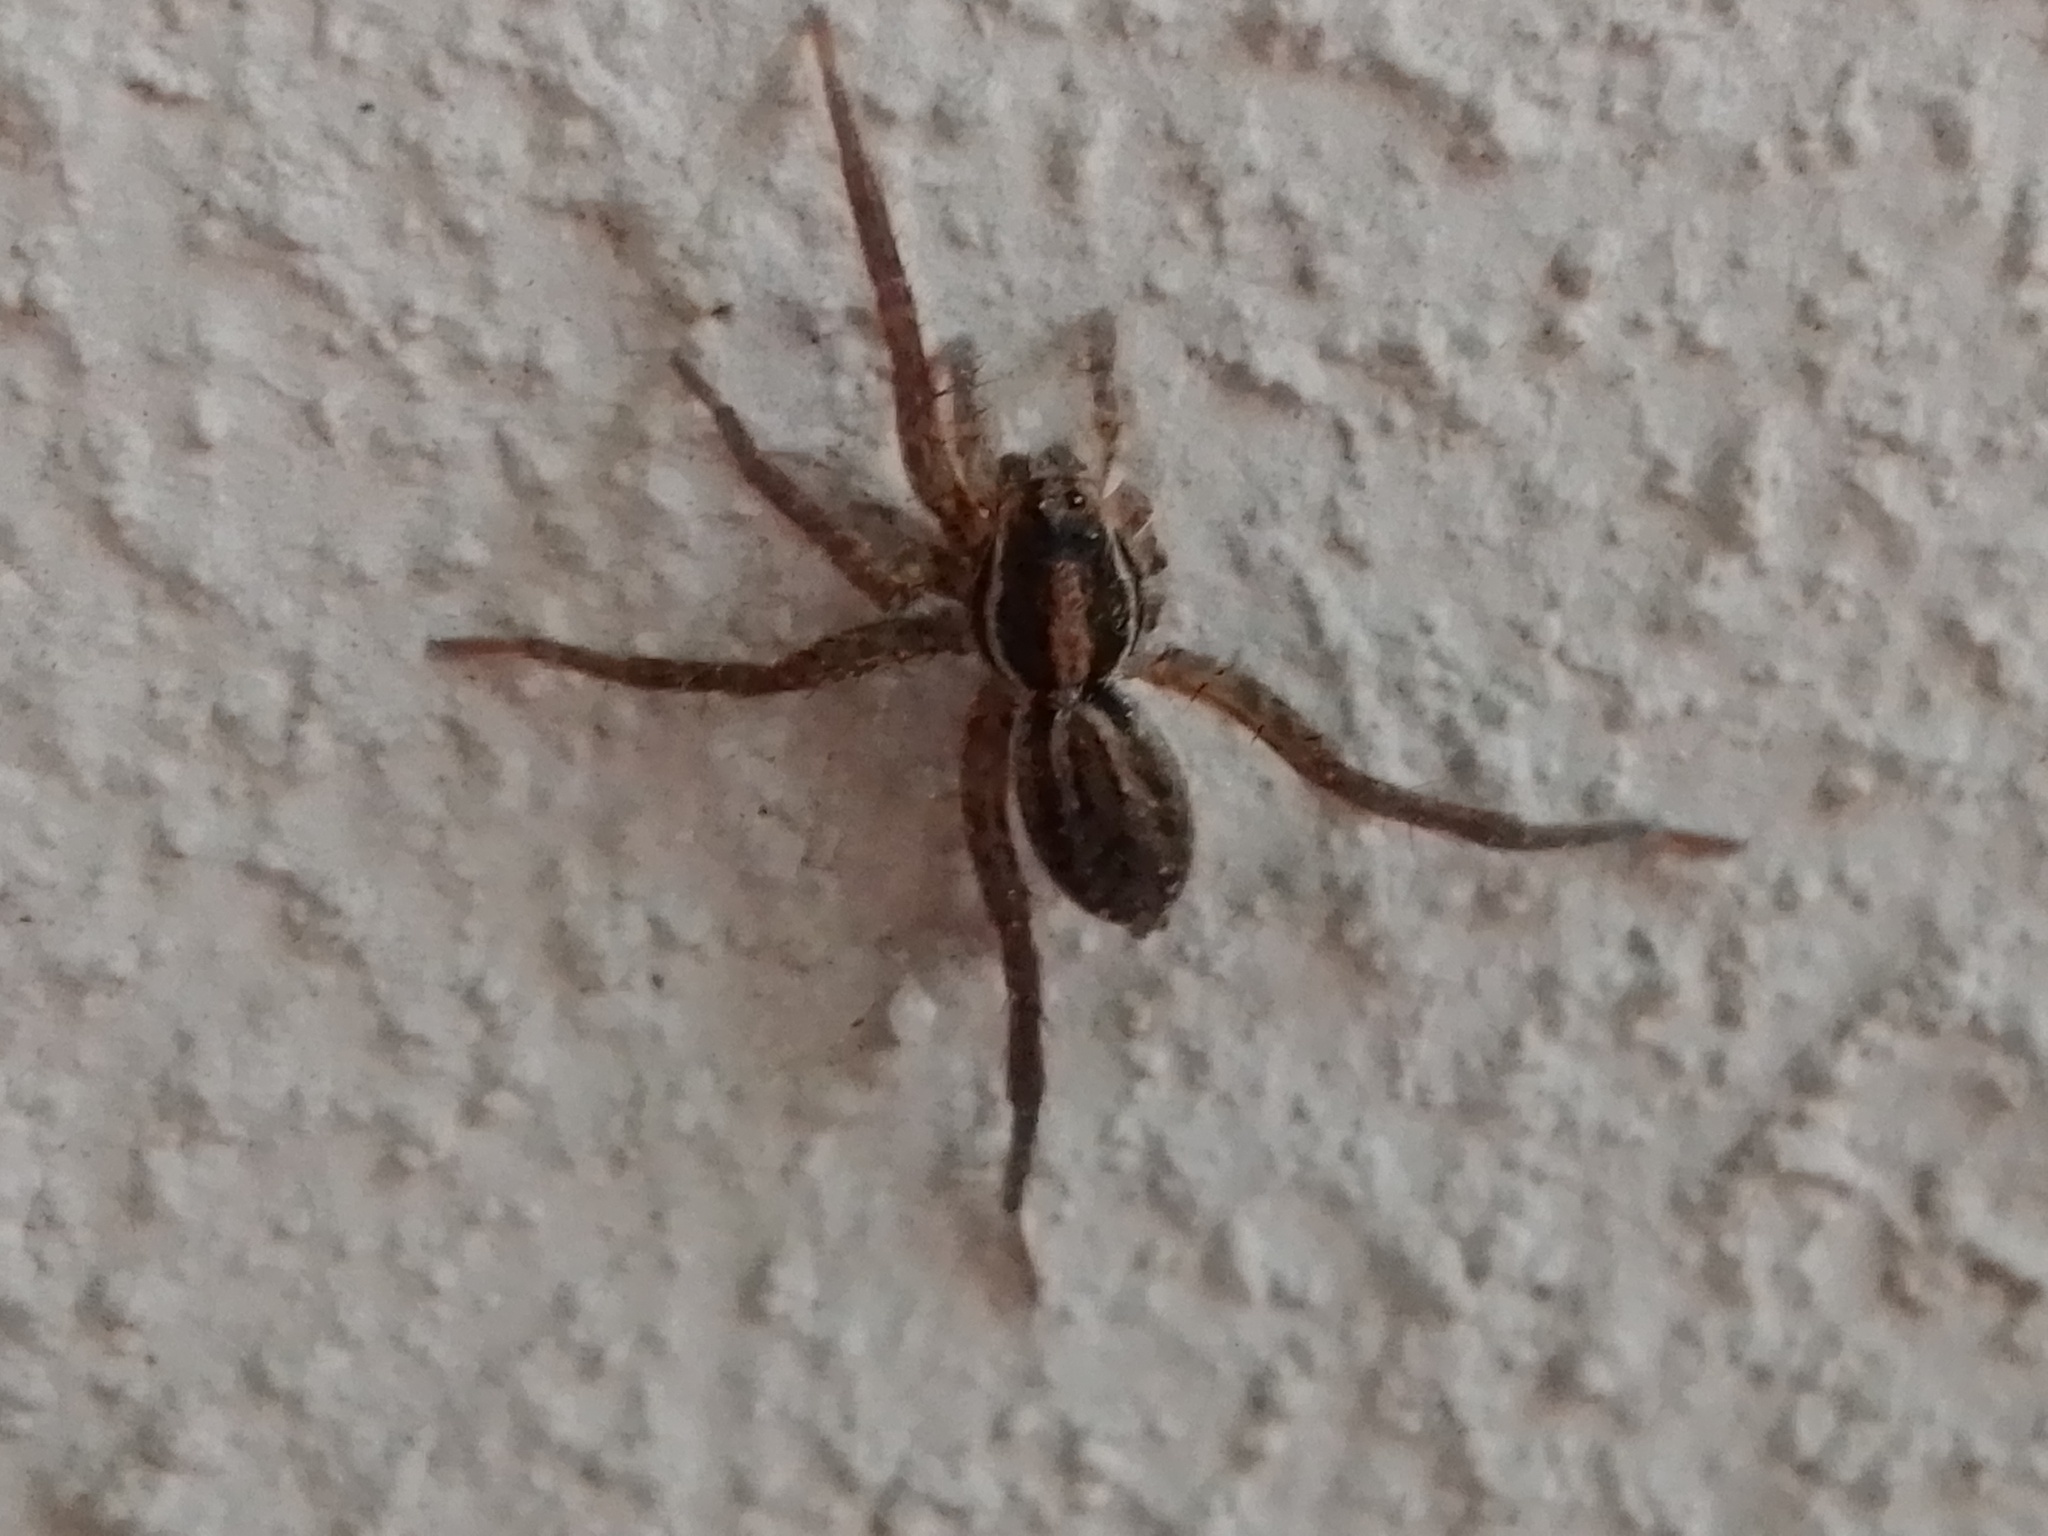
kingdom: Animalia
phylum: Arthropoda
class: Arachnida
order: Araneae
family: Lycosidae
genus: Alopecosa
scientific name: Alopecosa moesta
